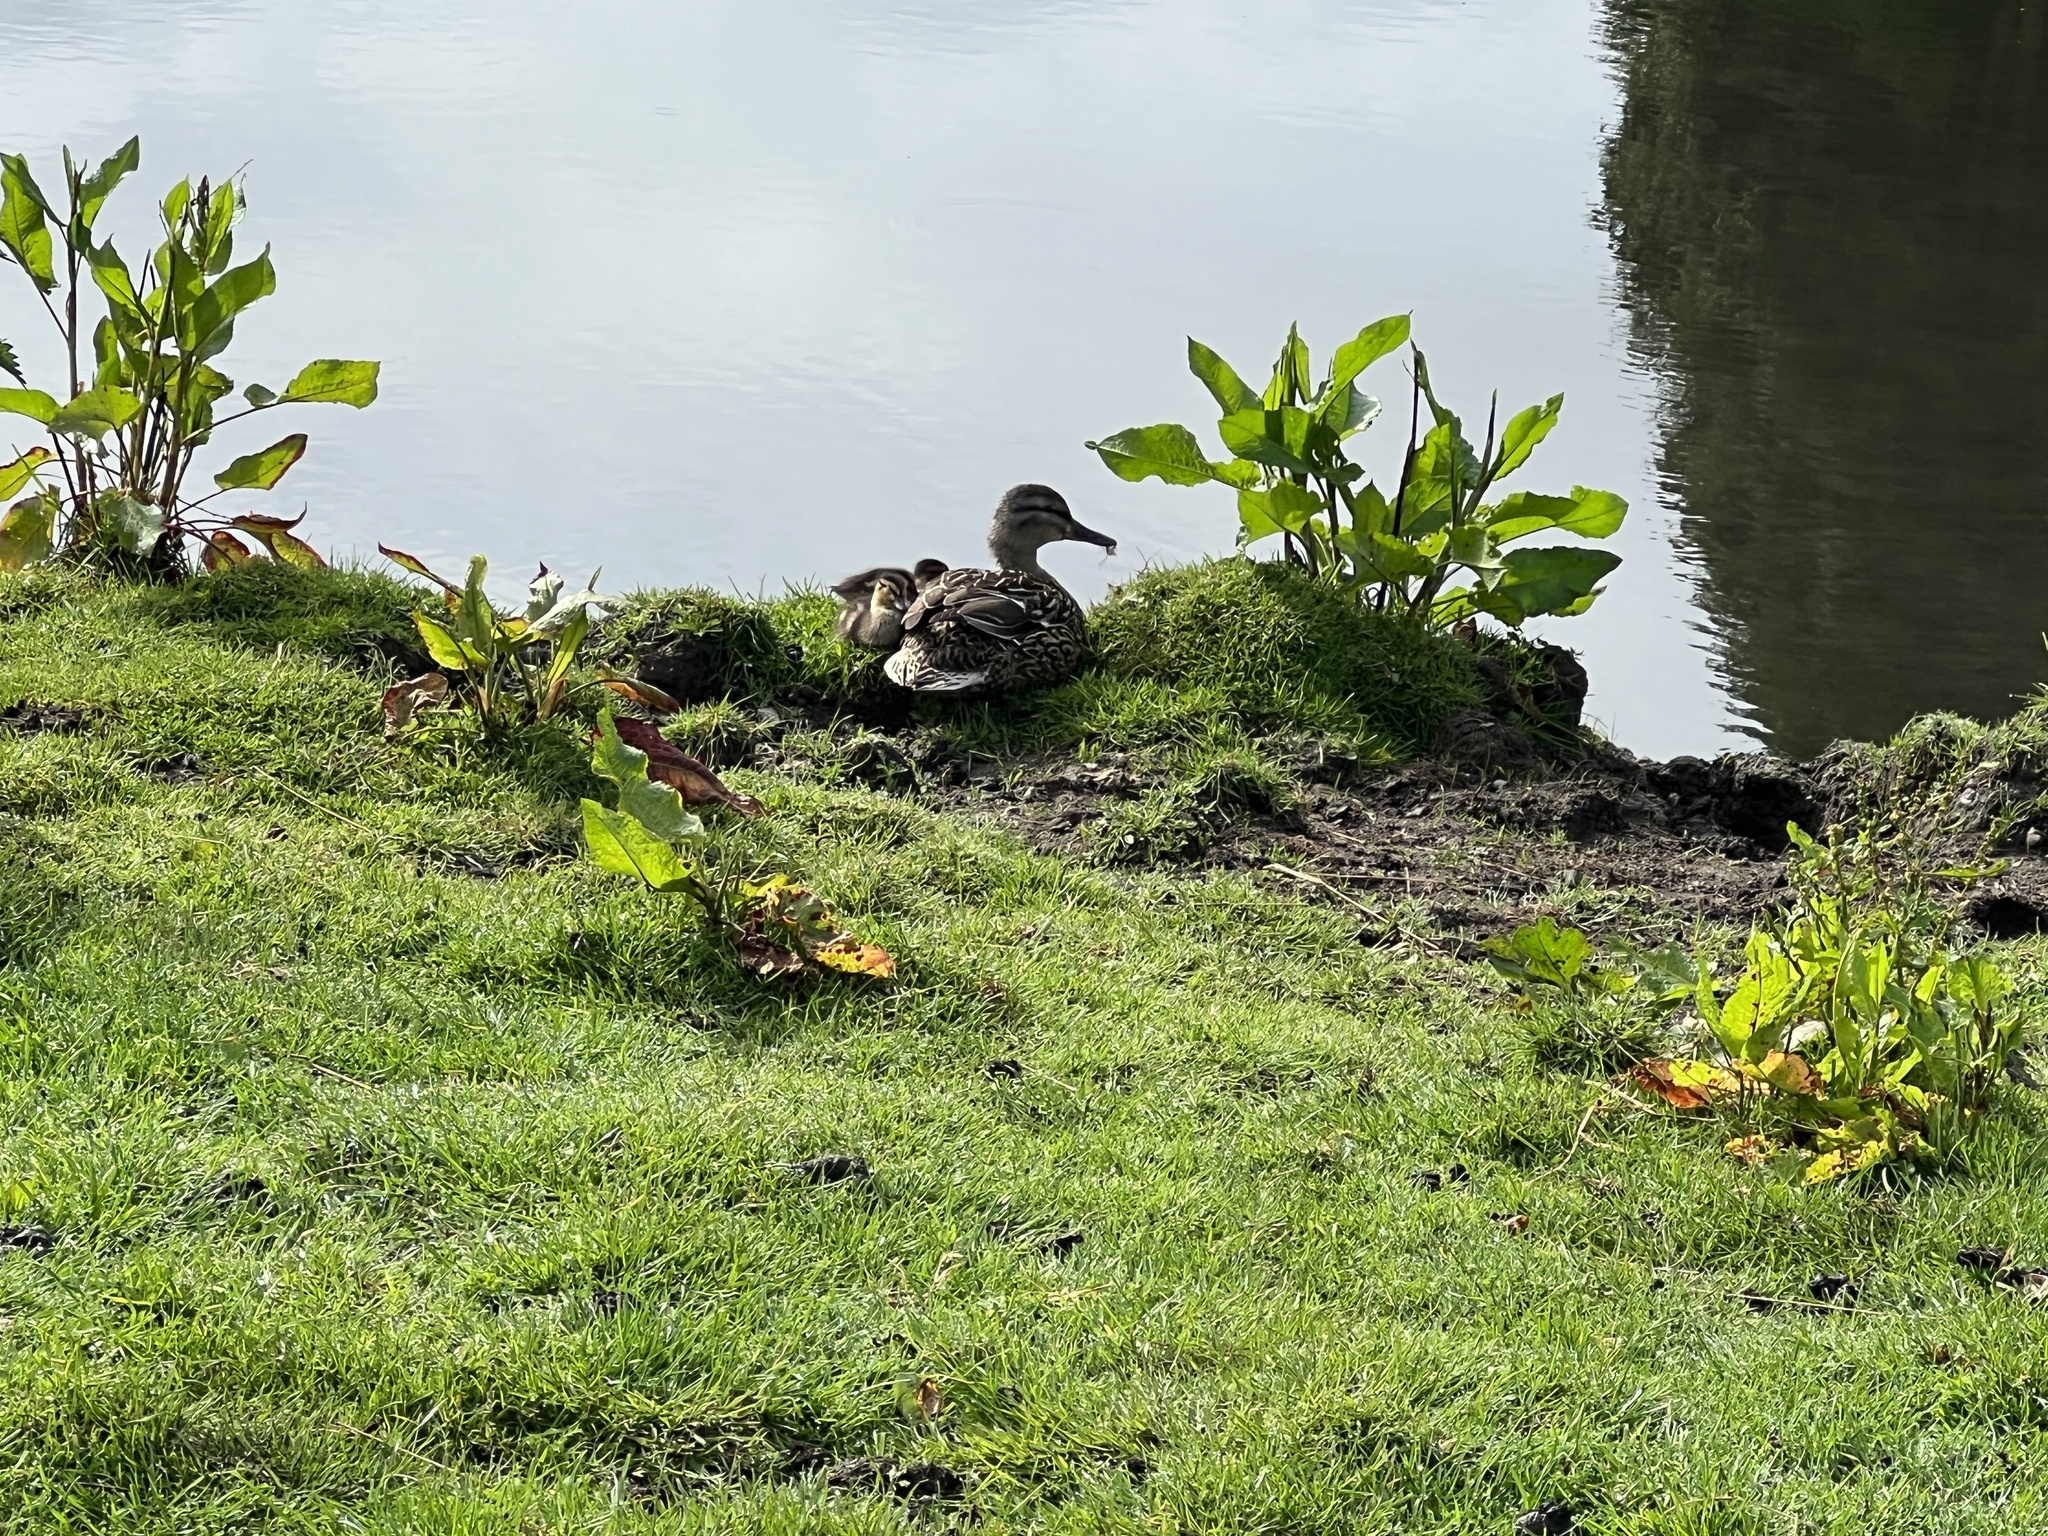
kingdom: Animalia
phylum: Chordata
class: Aves
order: Anseriformes
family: Anatidae
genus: Anas
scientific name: Anas platyrhynchos
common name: Mallard
